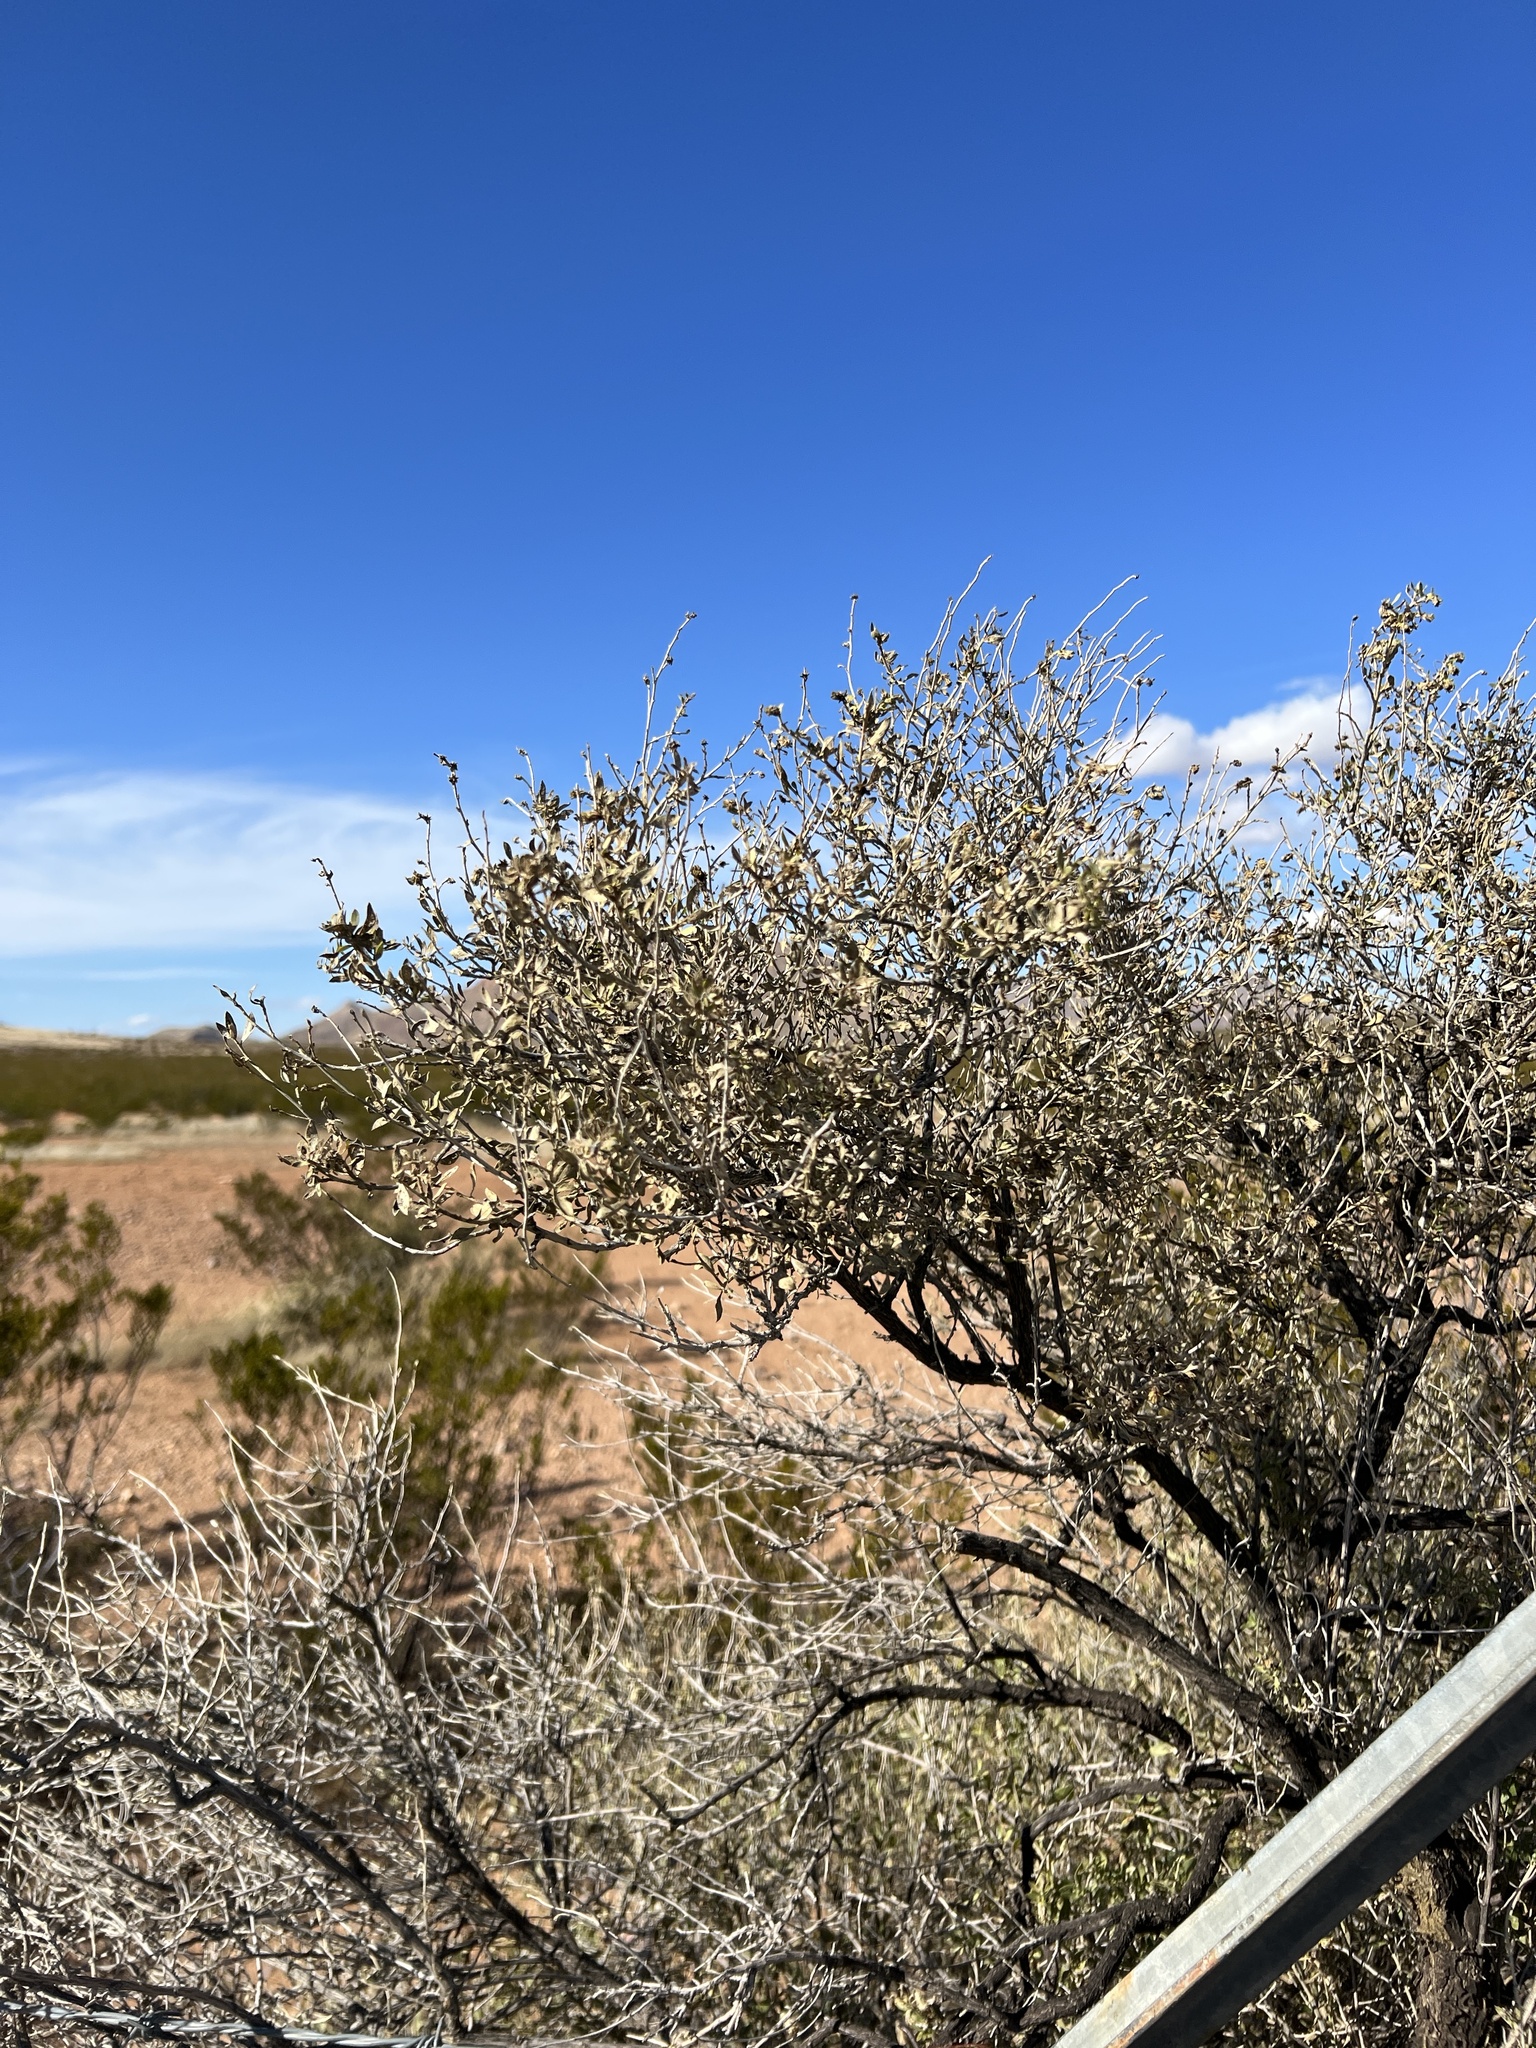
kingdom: Plantae
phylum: Tracheophyta
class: Magnoliopsida
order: Asterales
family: Asteraceae
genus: Flourensia
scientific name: Flourensia cernua
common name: Varnishbush
